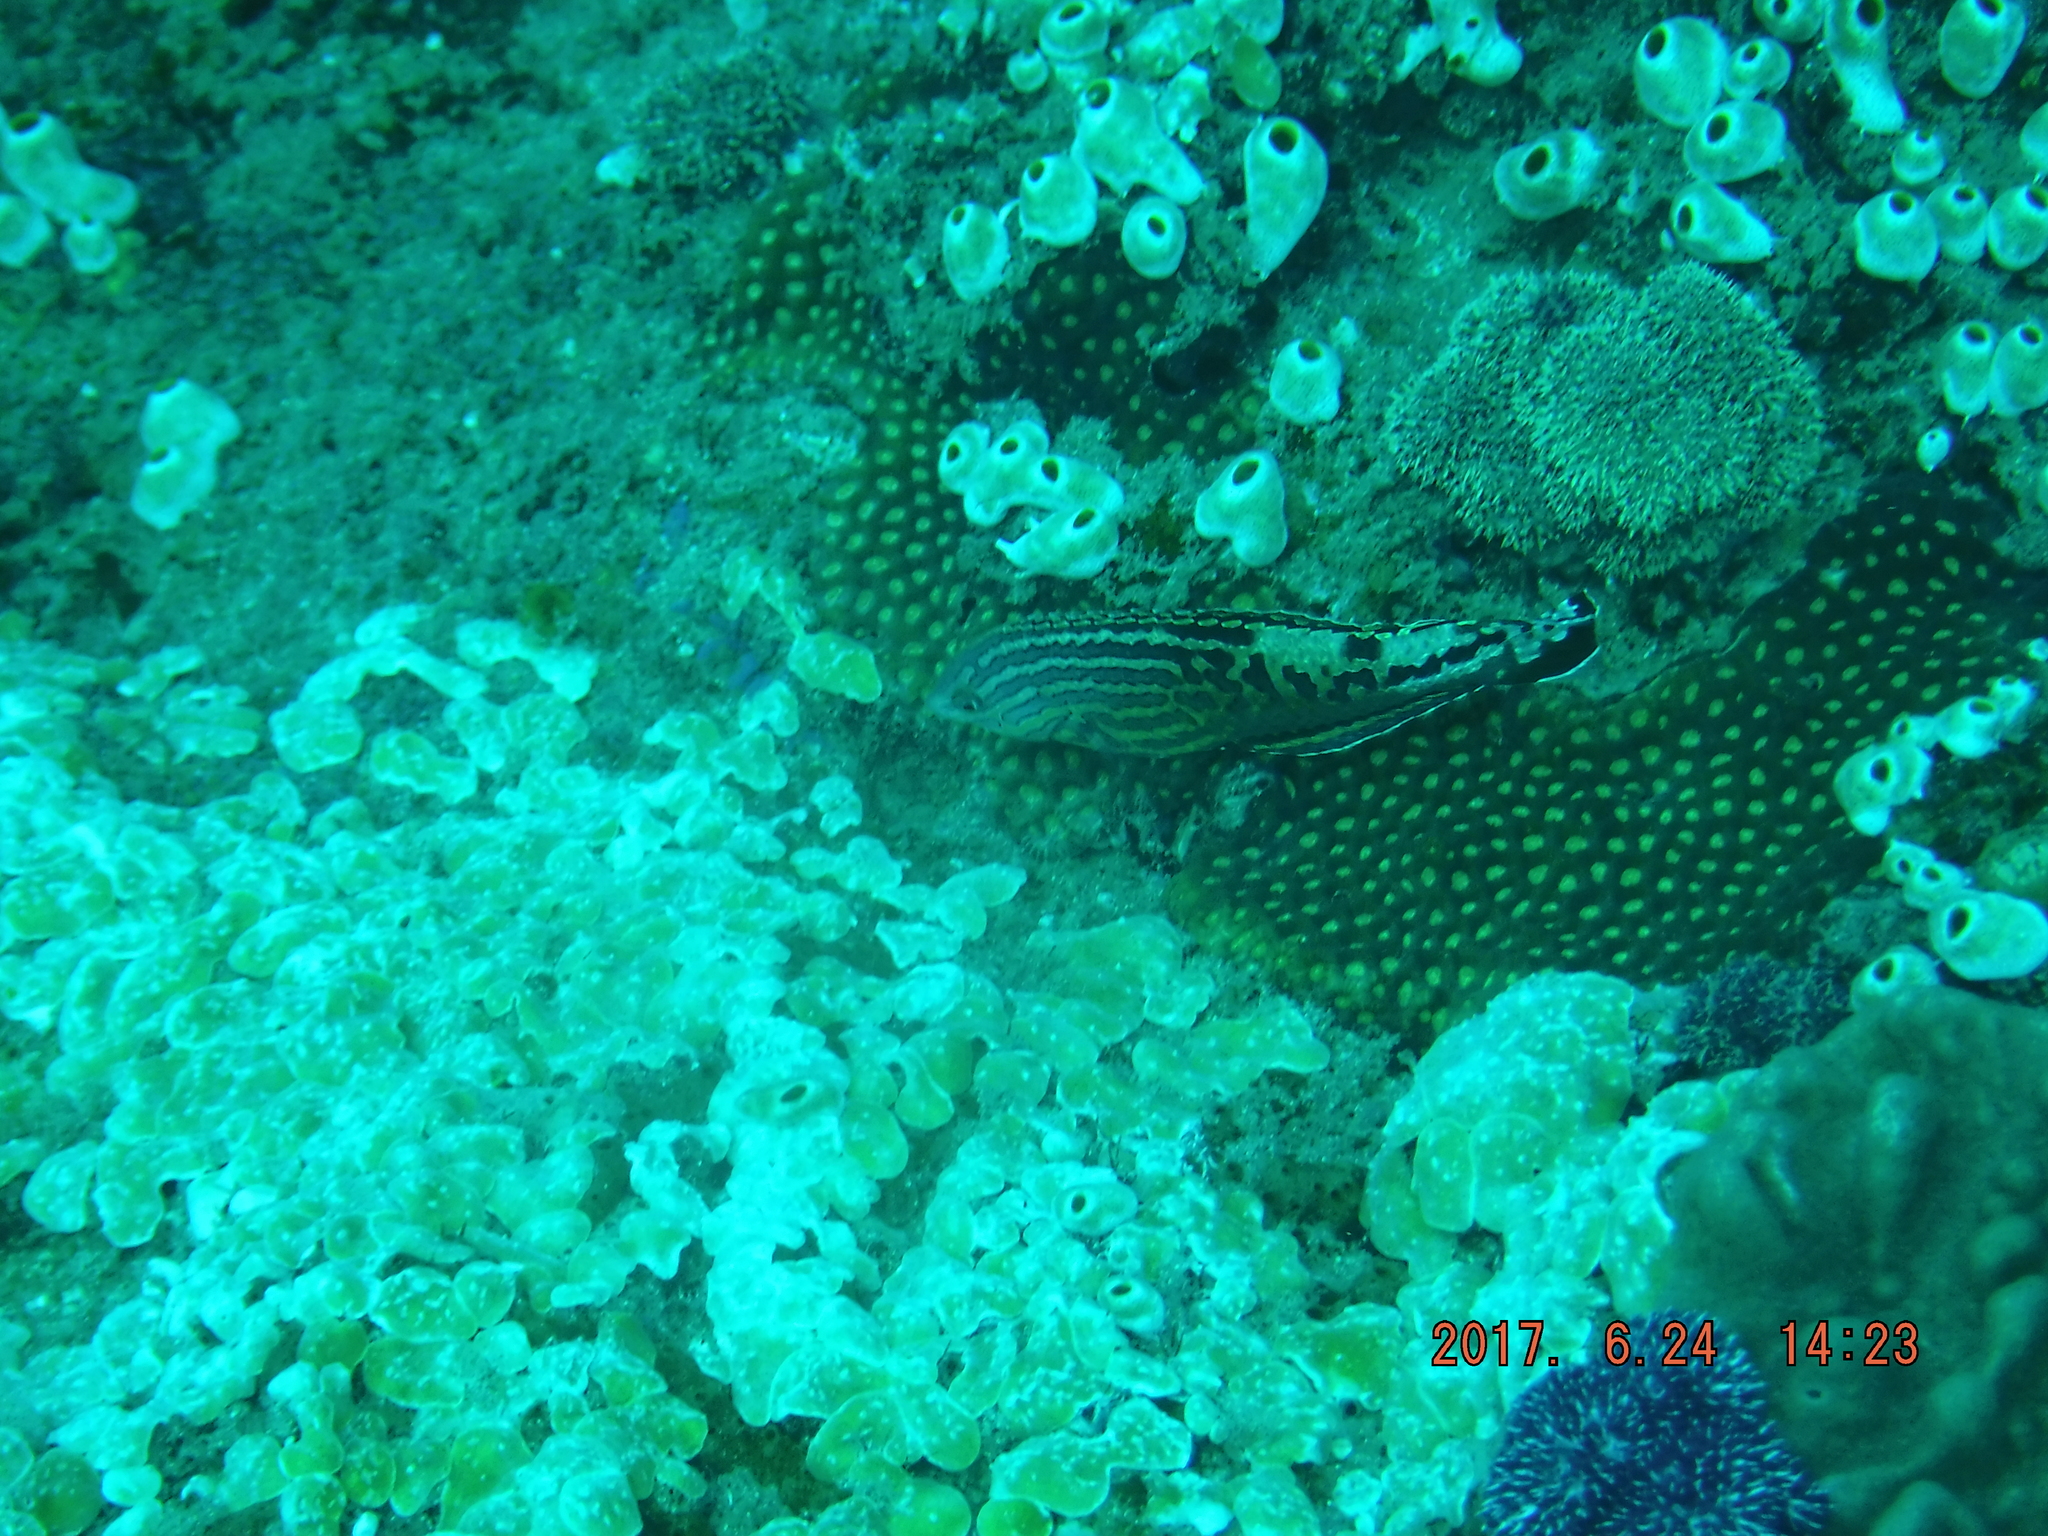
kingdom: Animalia
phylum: Chordata
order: Perciformes
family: Labridae
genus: Macropharyngodon
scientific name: Macropharyngodon bipartitus
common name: Divided wrasse
